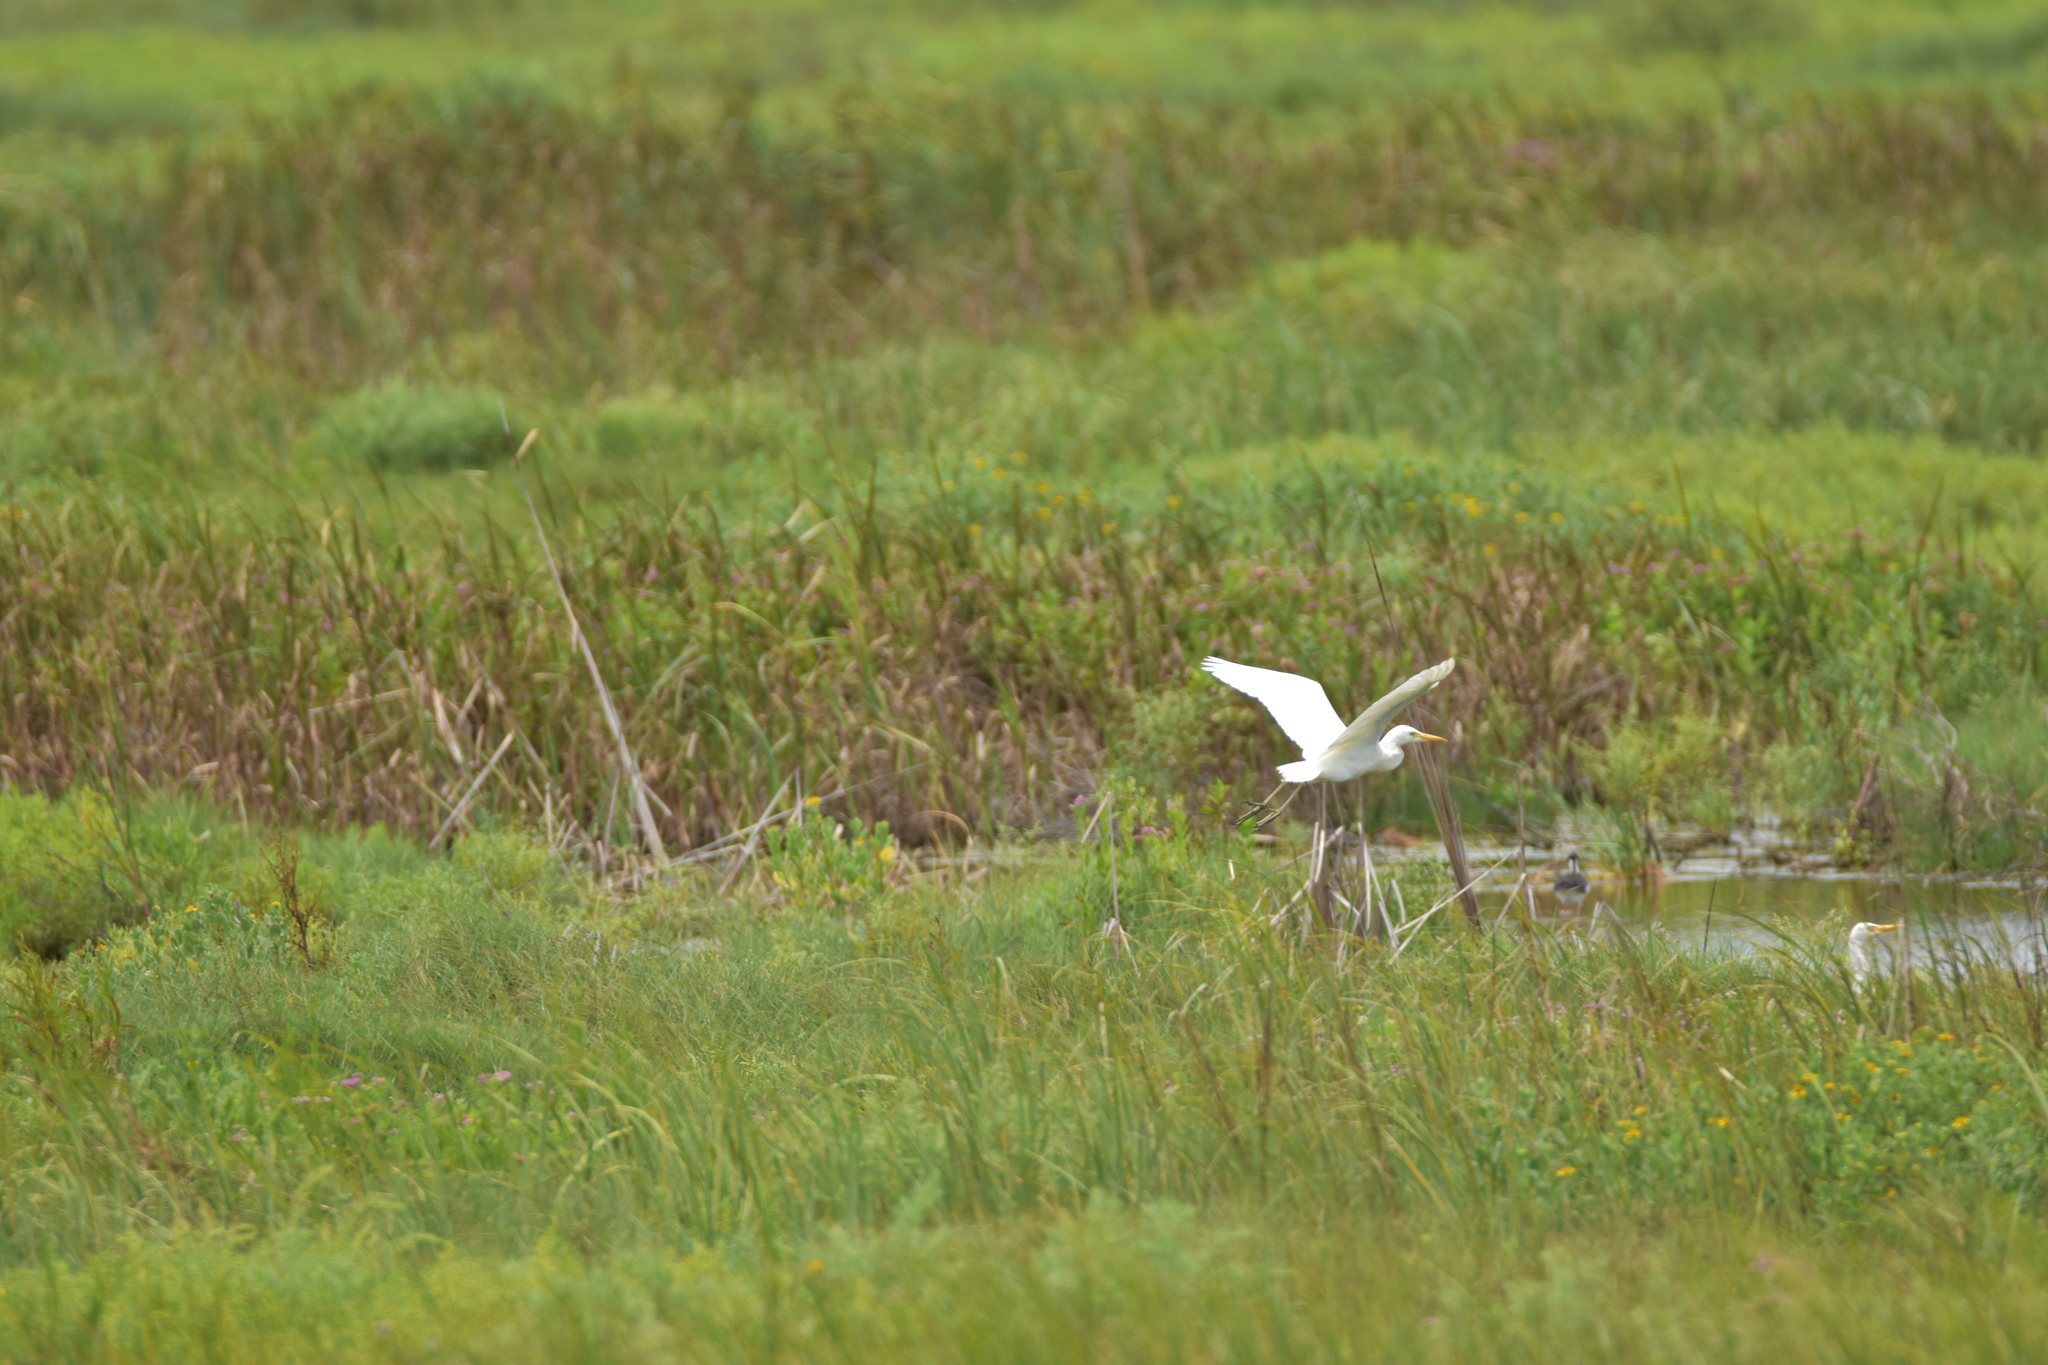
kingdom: Animalia
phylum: Chordata
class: Aves
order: Pelecaniformes
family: Ardeidae
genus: Bubulcus
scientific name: Bubulcus ibis
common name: Cattle egret
